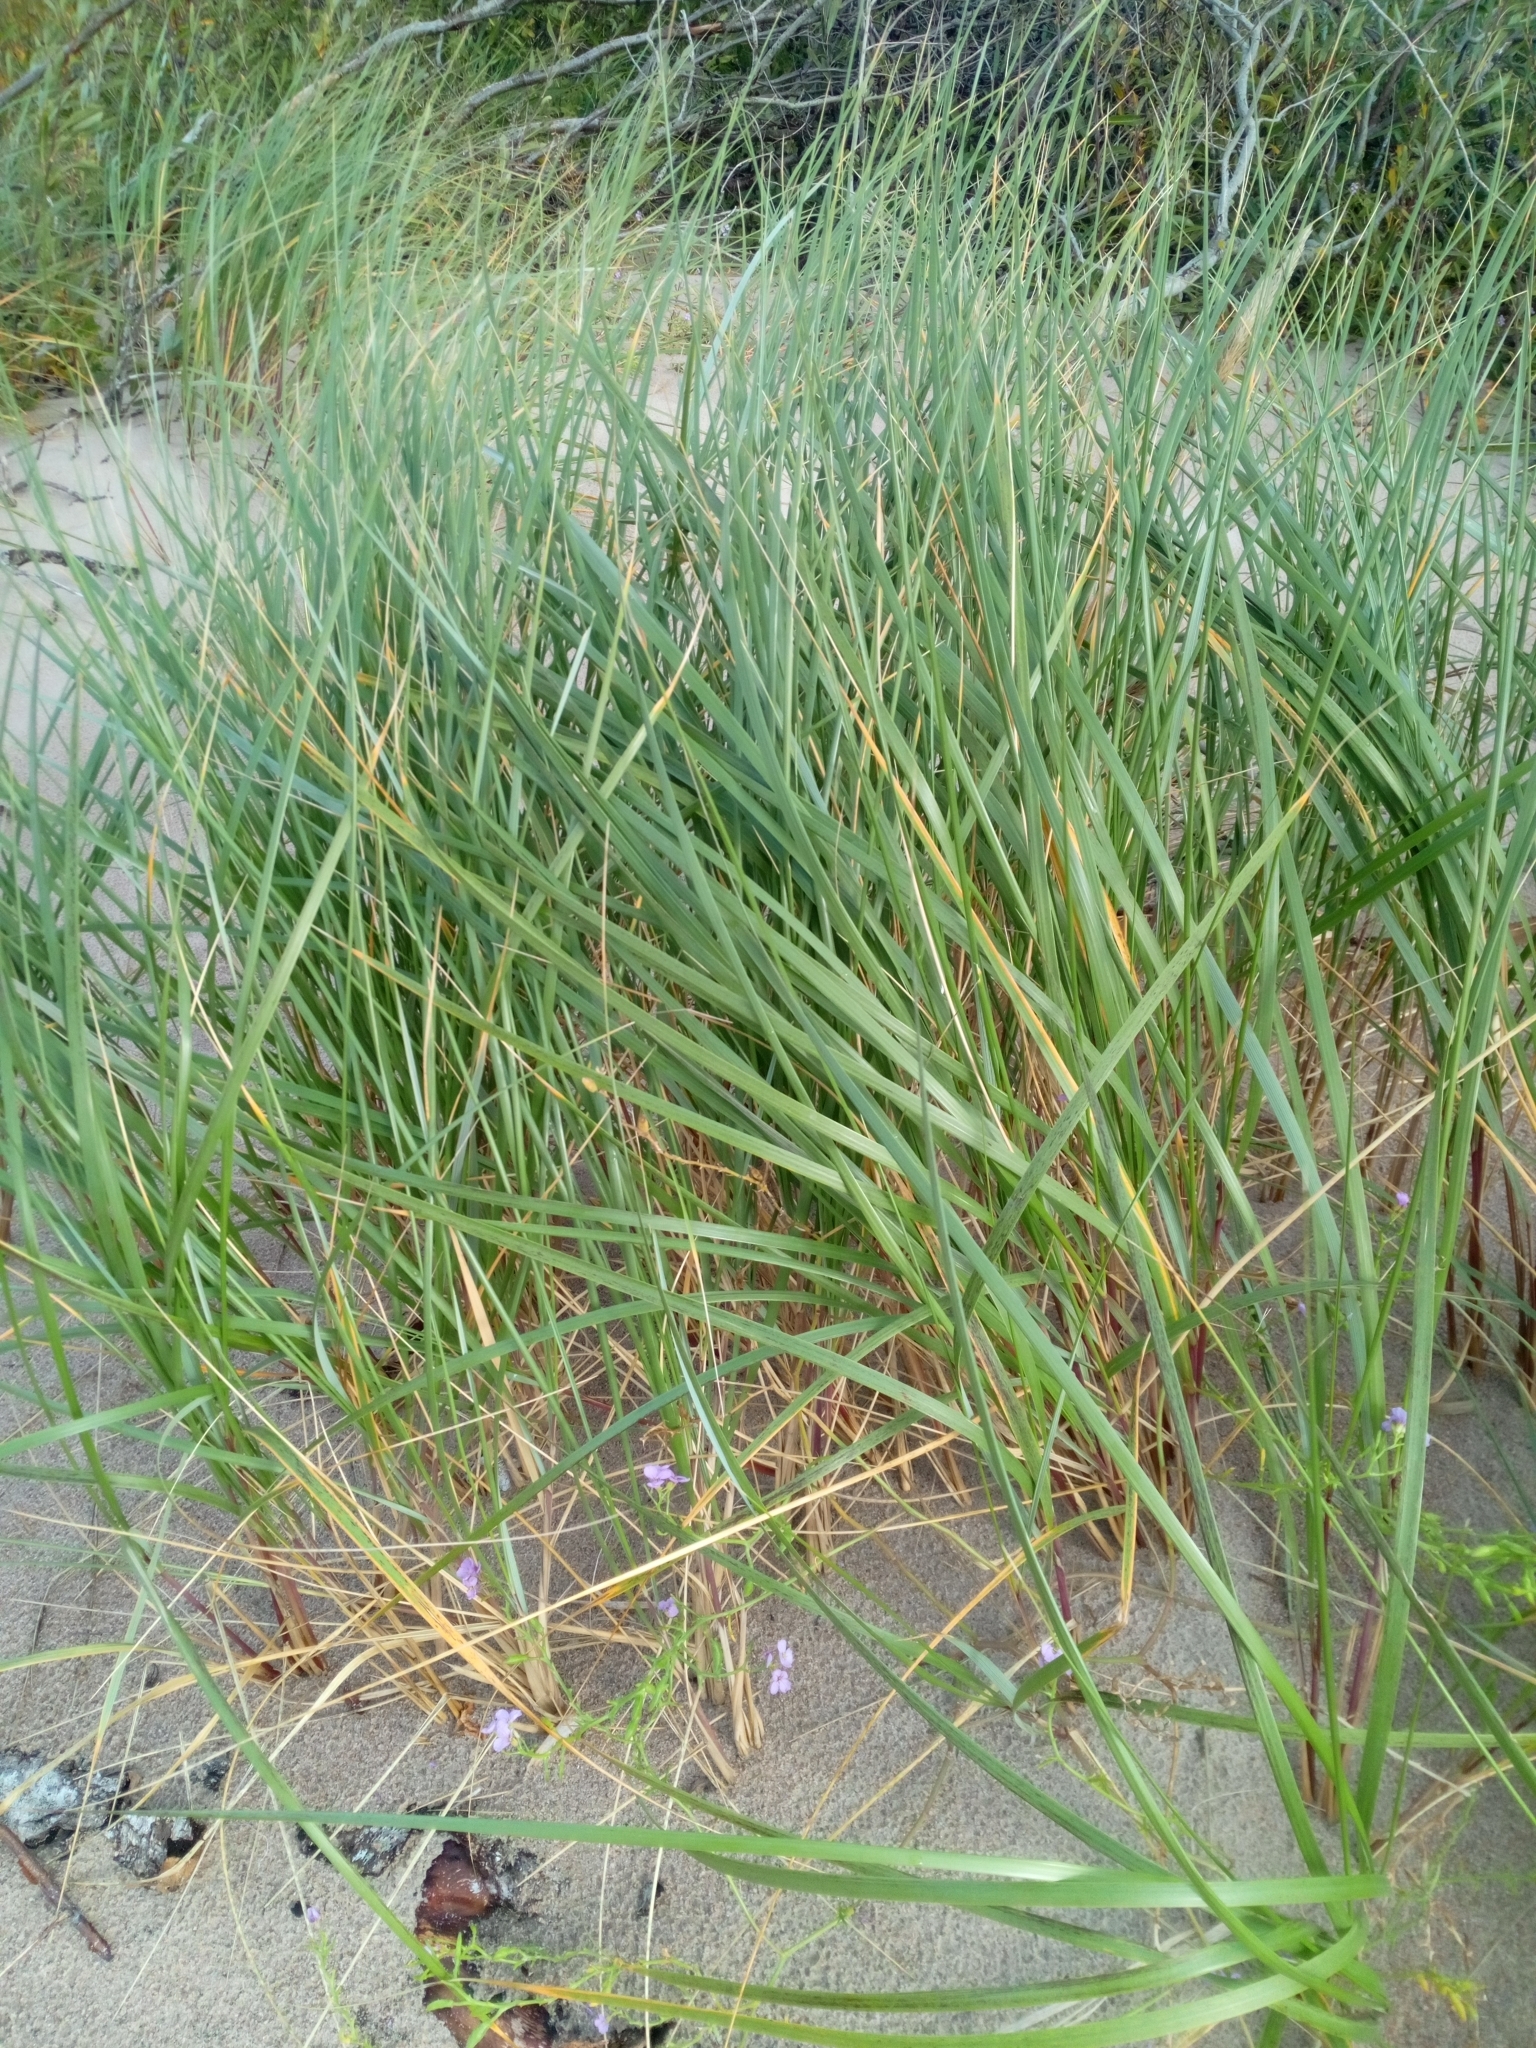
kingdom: Plantae
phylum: Tracheophyta
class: Liliopsida
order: Poales
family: Poaceae
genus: Calamagrostis
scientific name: Calamagrostis arenaria
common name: European beachgrass
